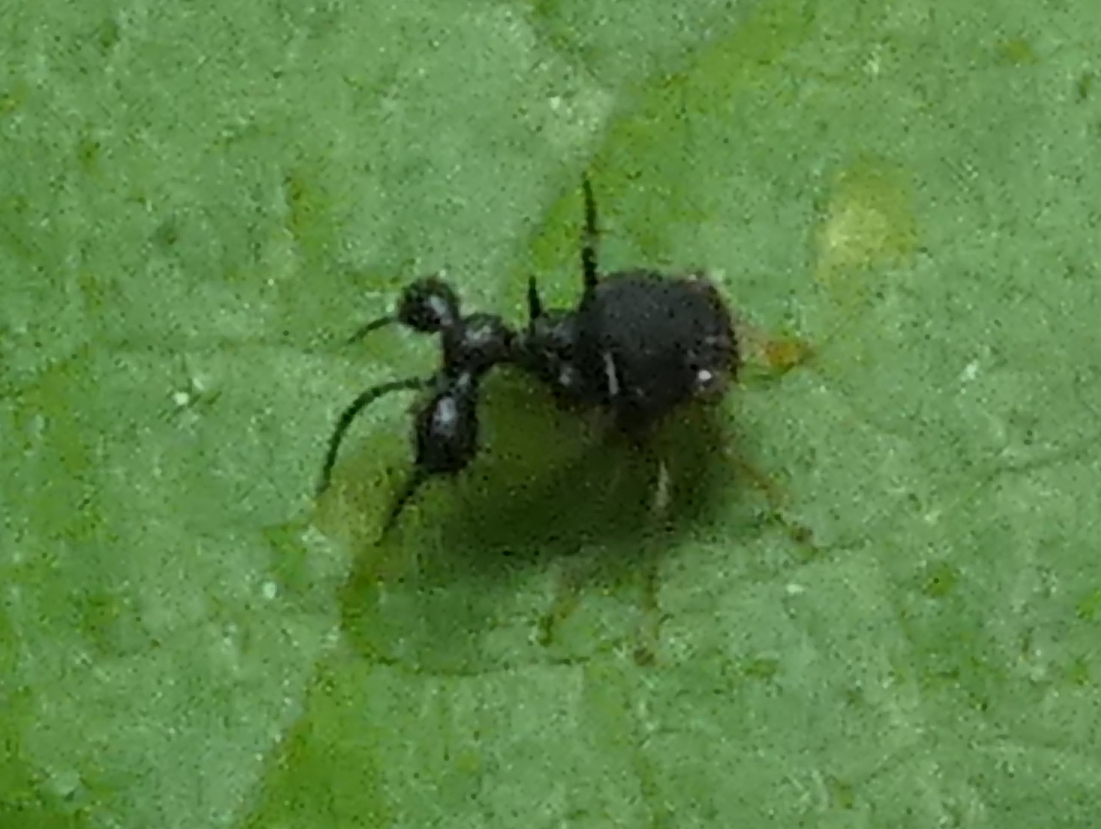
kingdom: Animalia
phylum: Arthropoda
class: Insecta
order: Hemiptera
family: Membracidae
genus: Cyphonia
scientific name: Cyphonia clavata
